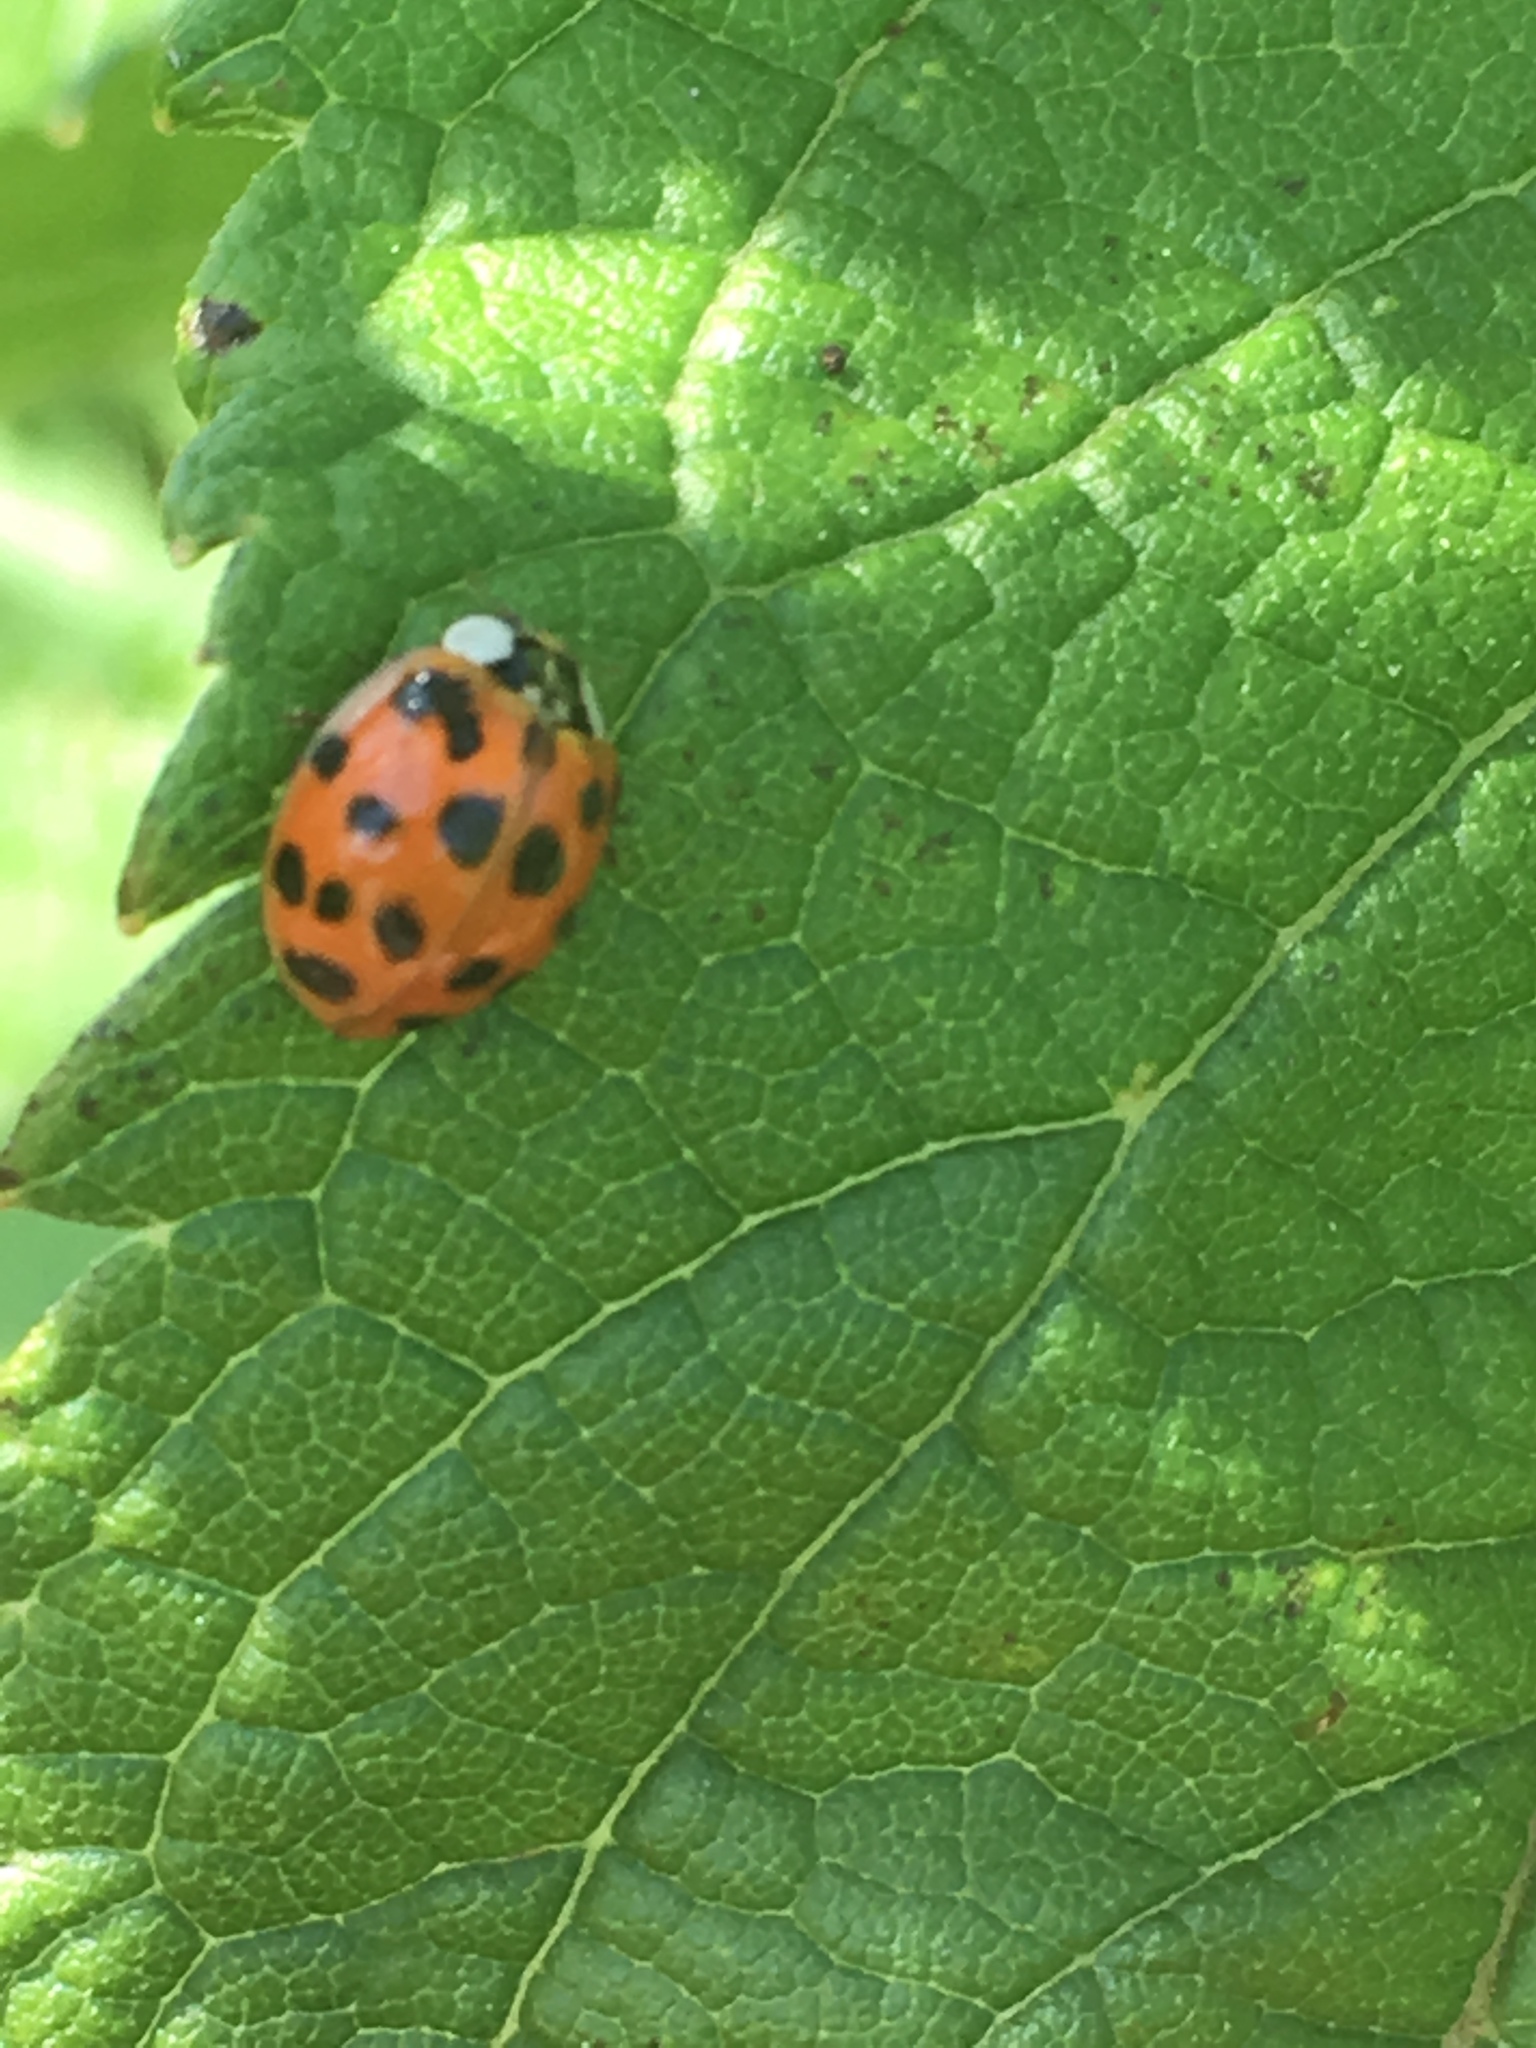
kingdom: Animalia
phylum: Arthropoda
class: Insecta
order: Coleoptera
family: Coccinellidae
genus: Harmonia
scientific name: Harmonia axyridis
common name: Harlequin ladybird
